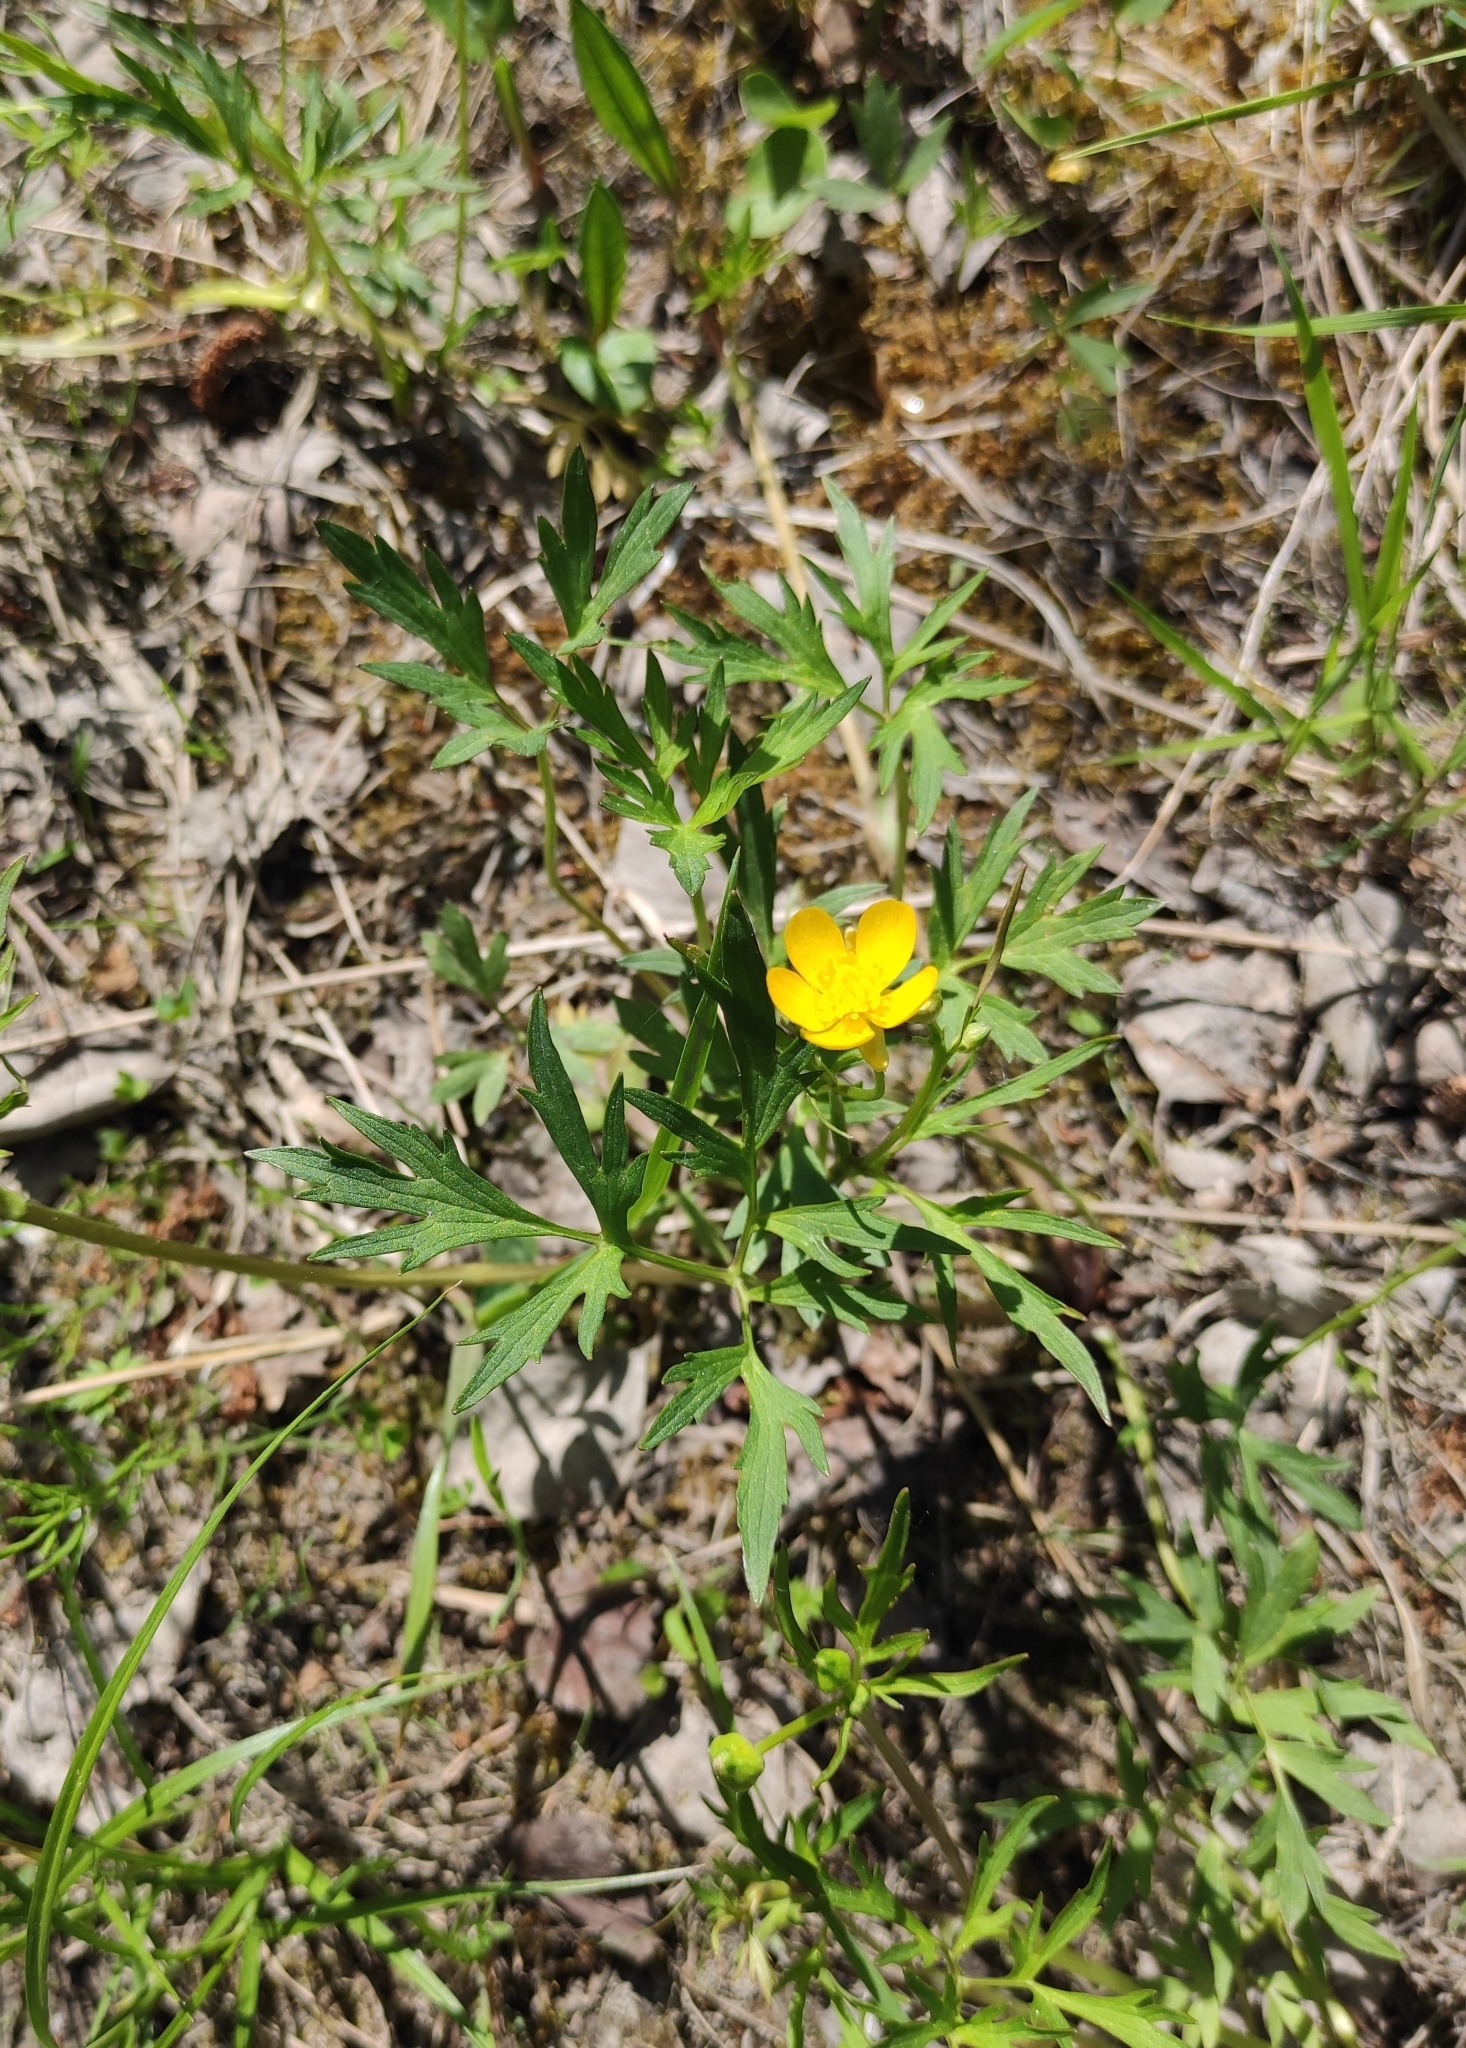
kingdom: Plantae
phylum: Tracheophyta
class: Magnoliopsida
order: Ranunculales
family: Ranunculaceae
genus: Ranunculus
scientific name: Ranunculus repens
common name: Creeping buttercup
